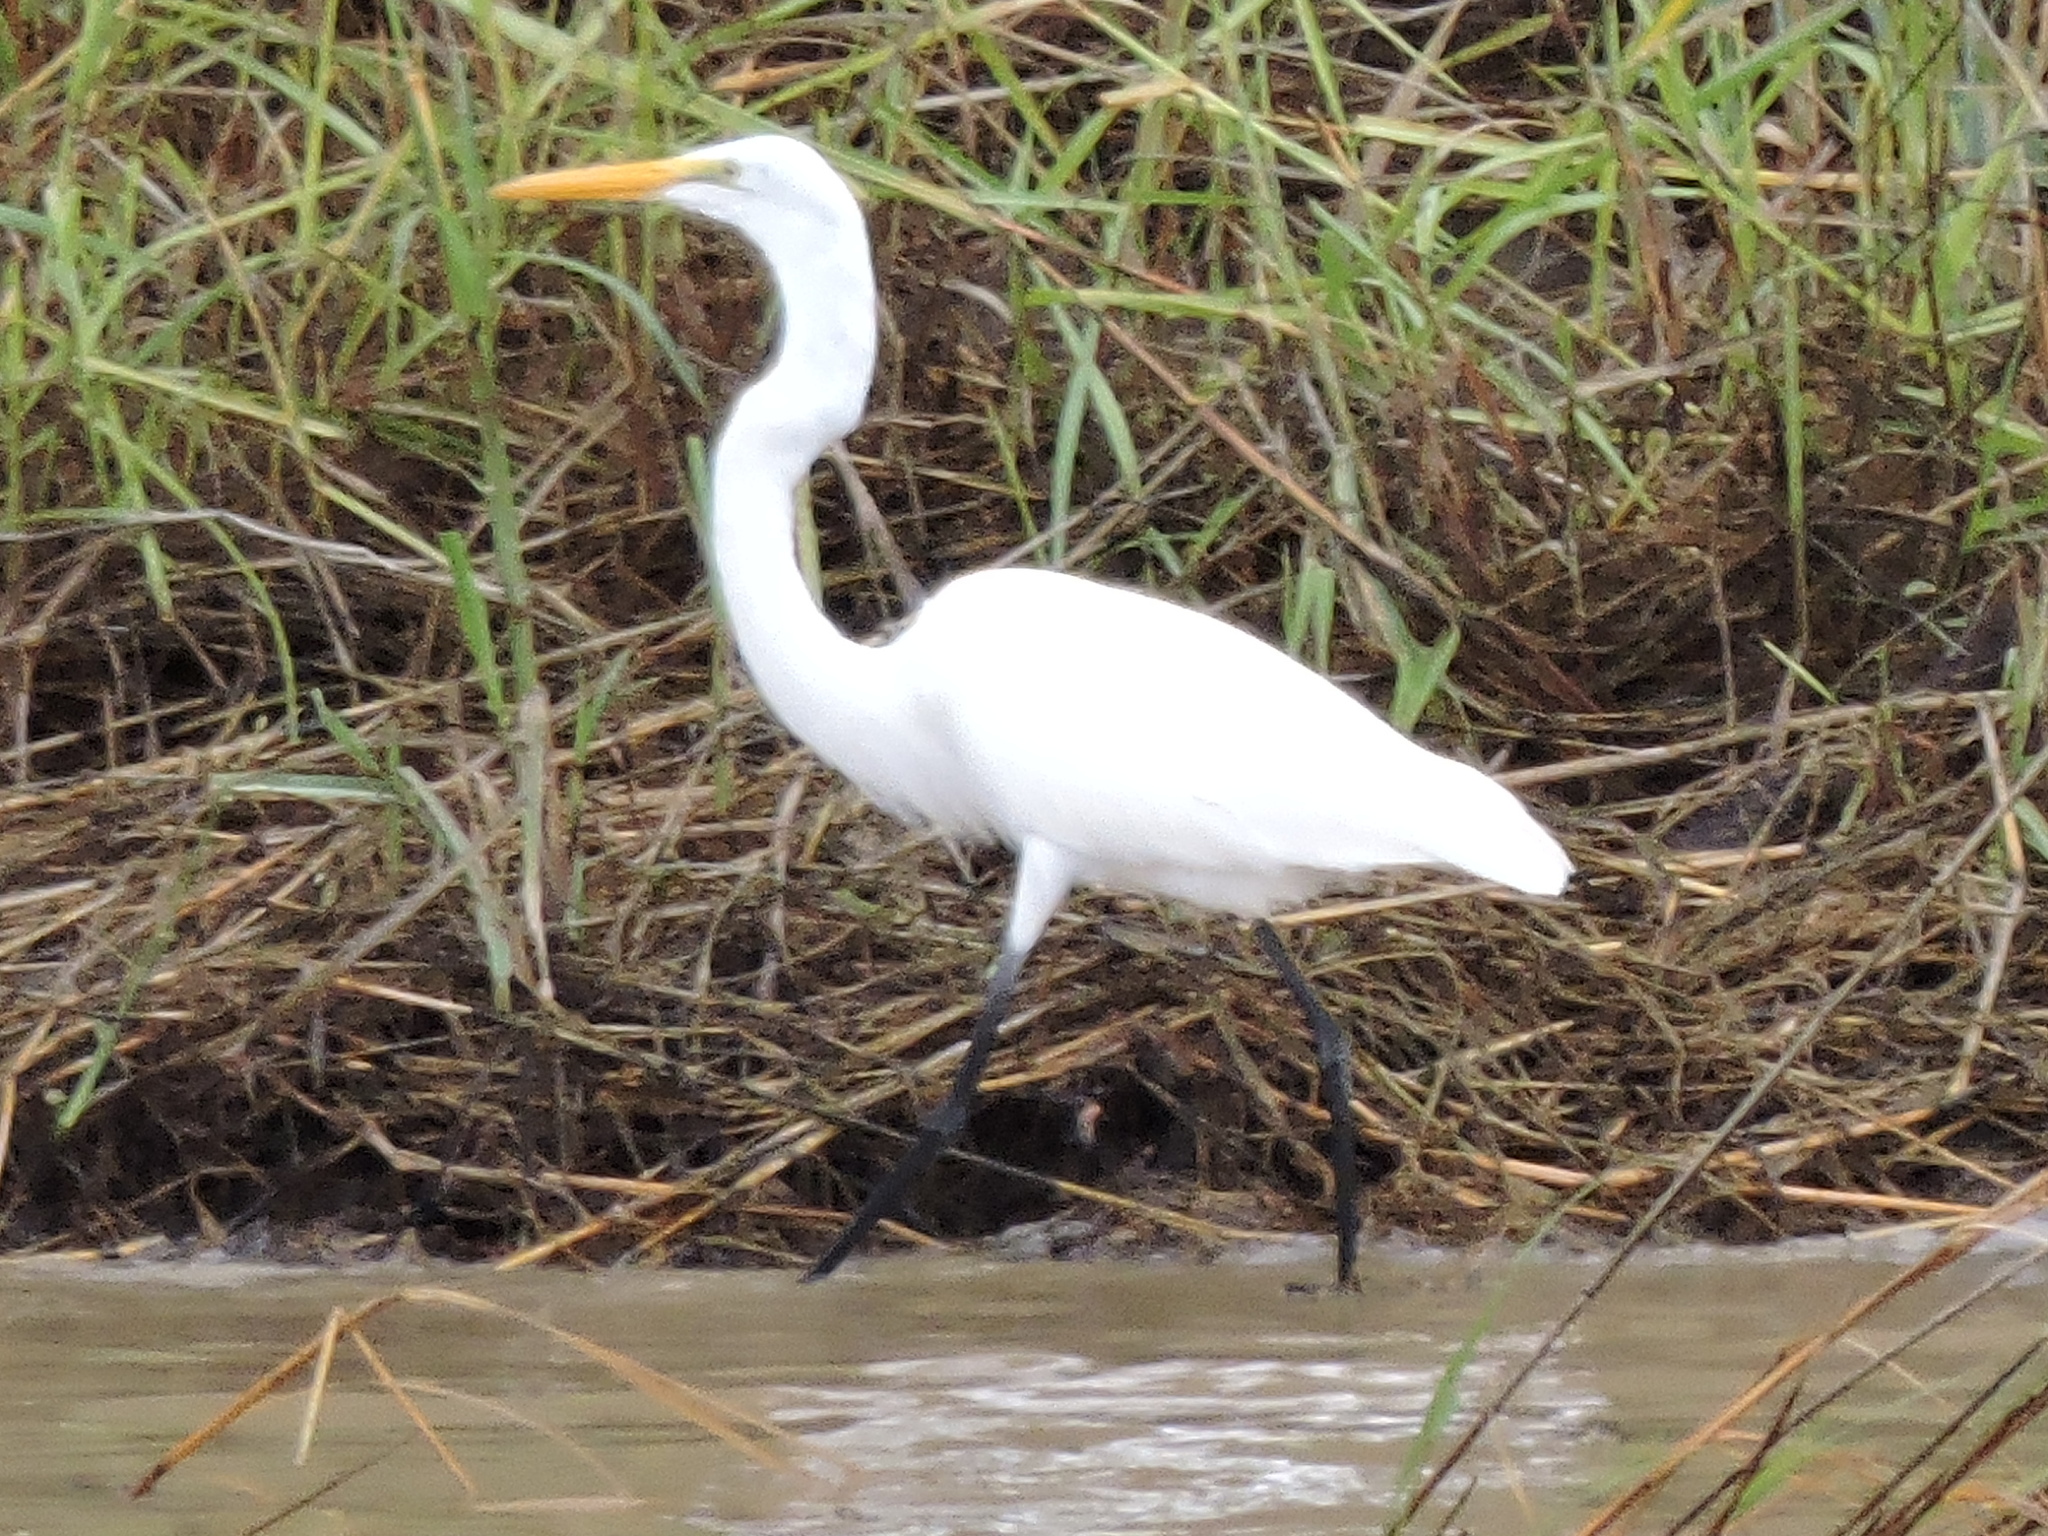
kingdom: Animalia
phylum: Chordata
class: Aves
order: Pelecaniformes
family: Ardeidae
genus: Ardea
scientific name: Ardea alba
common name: Great egret
